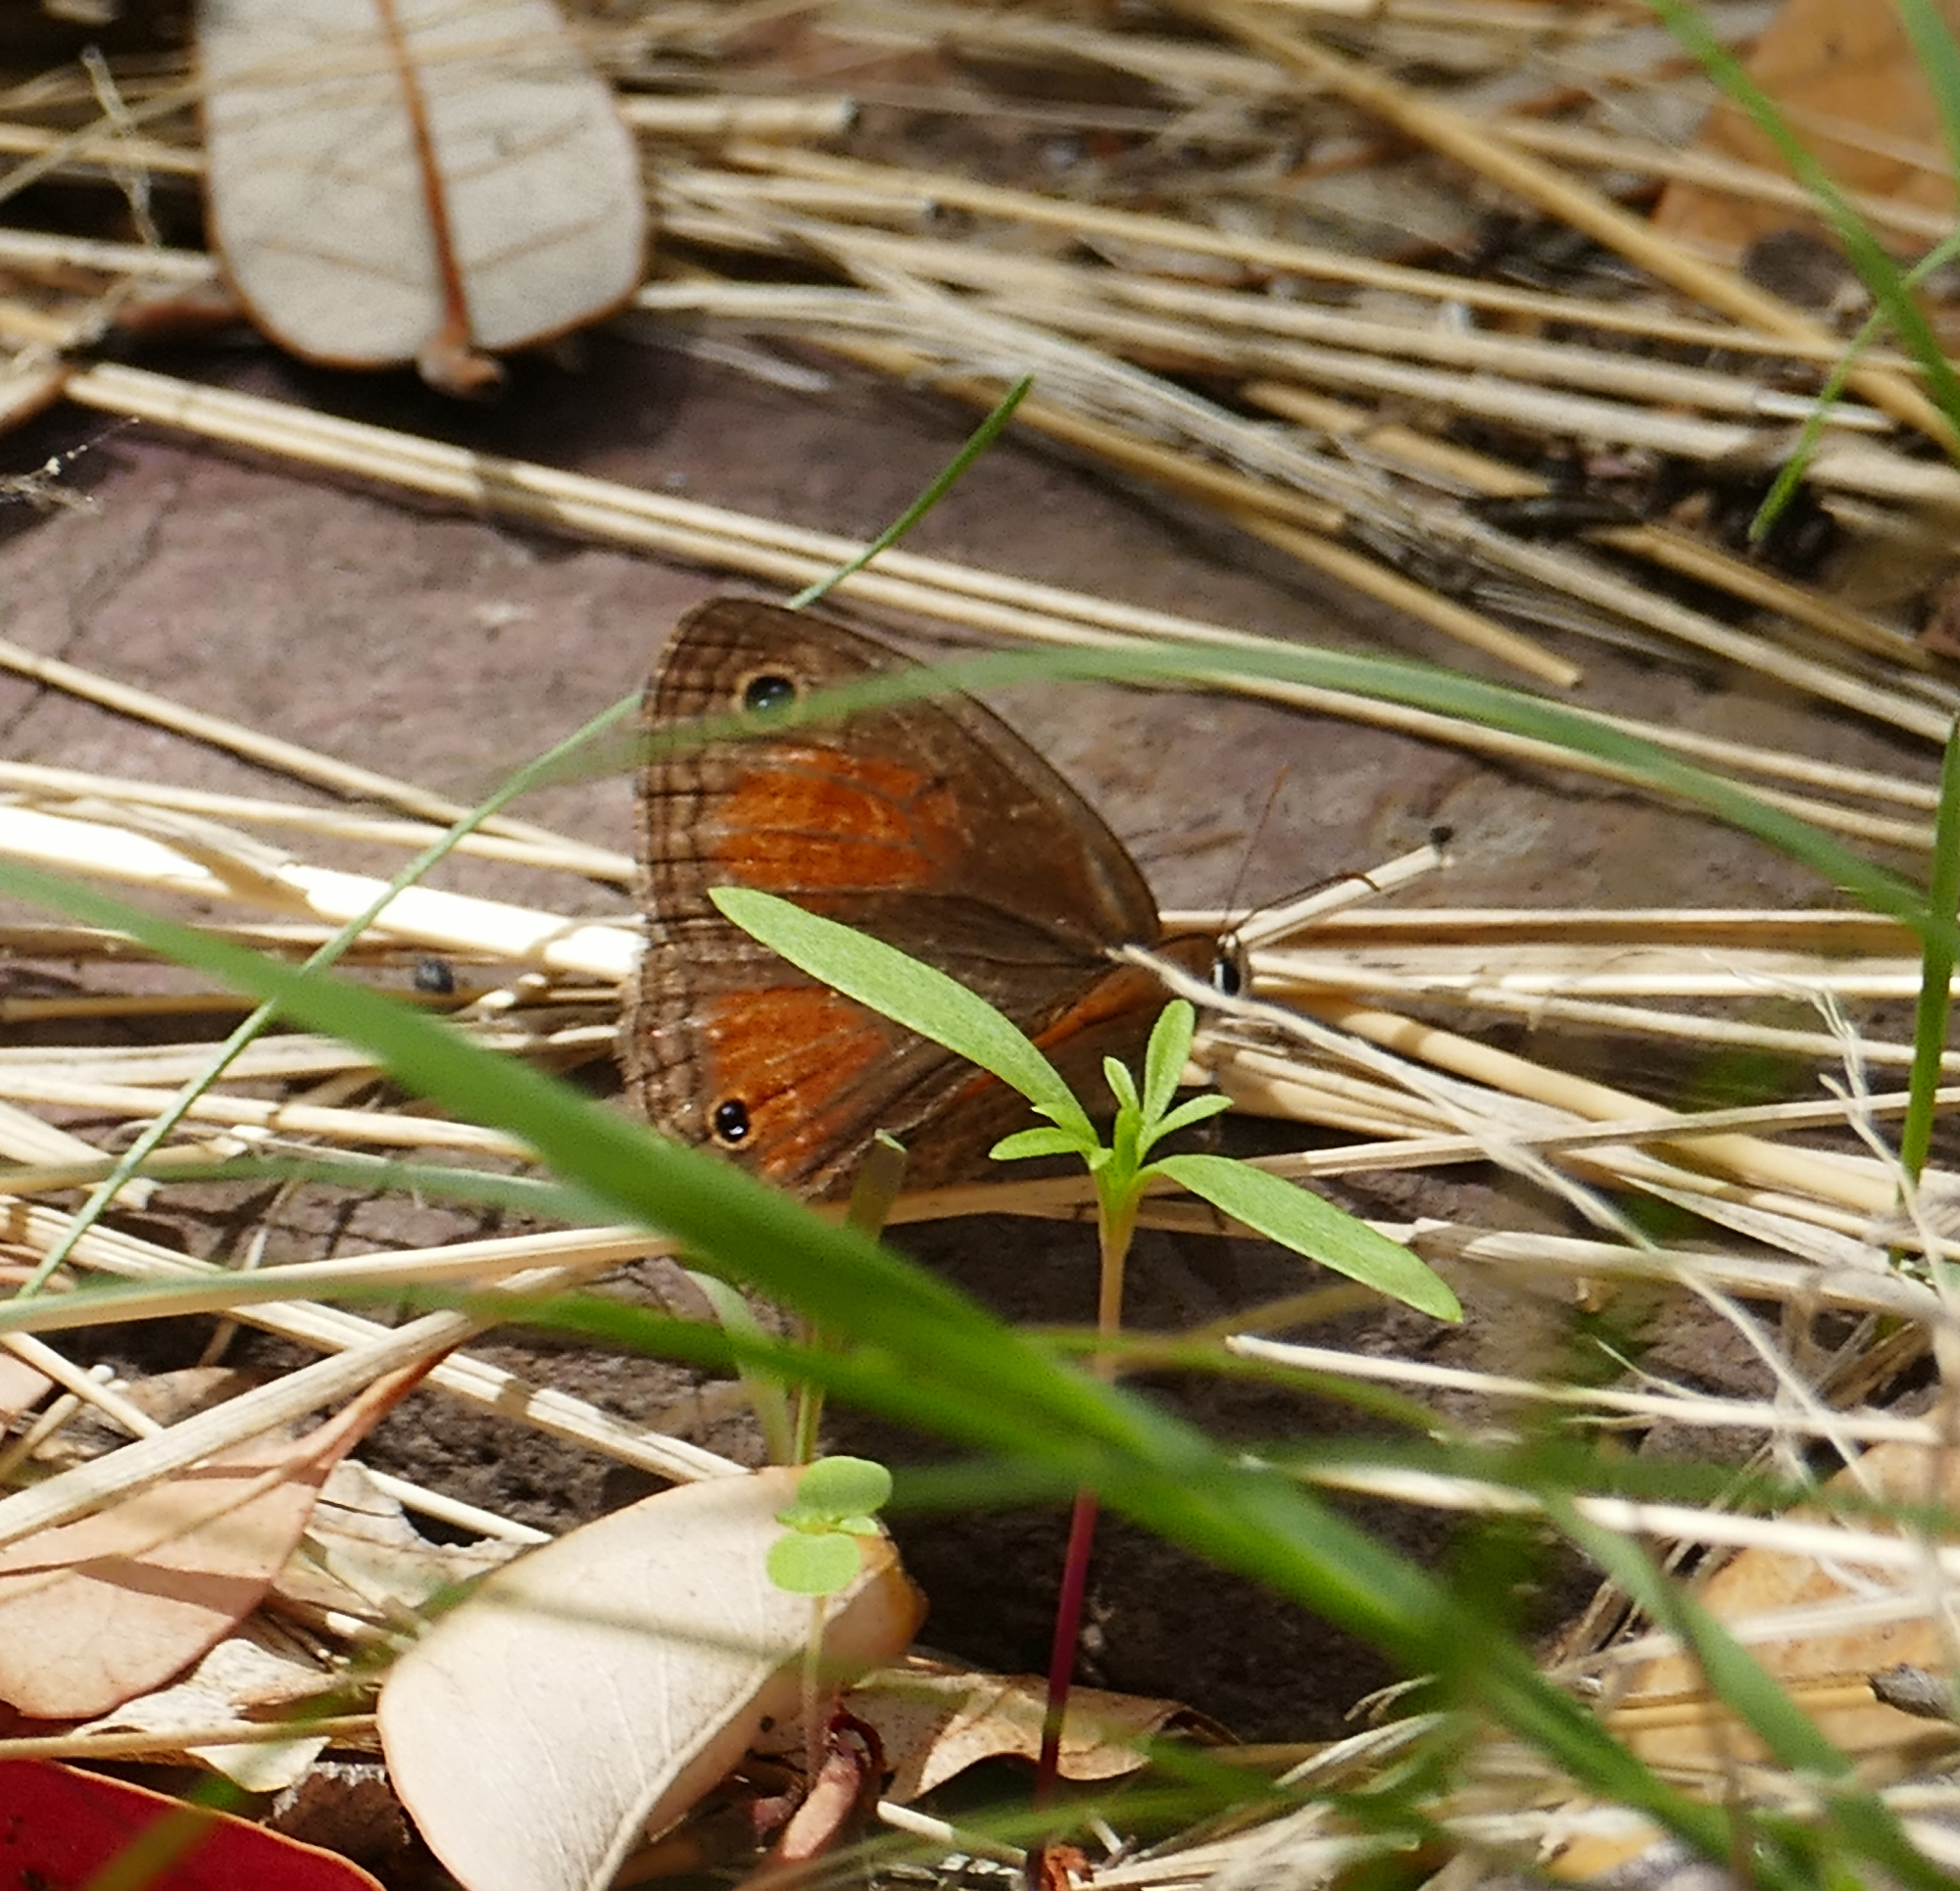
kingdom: Animalia
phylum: Arthropoda
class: Insecta
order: Lepidoptera
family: Nymphalidae
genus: Euptychia
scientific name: Euptychia
